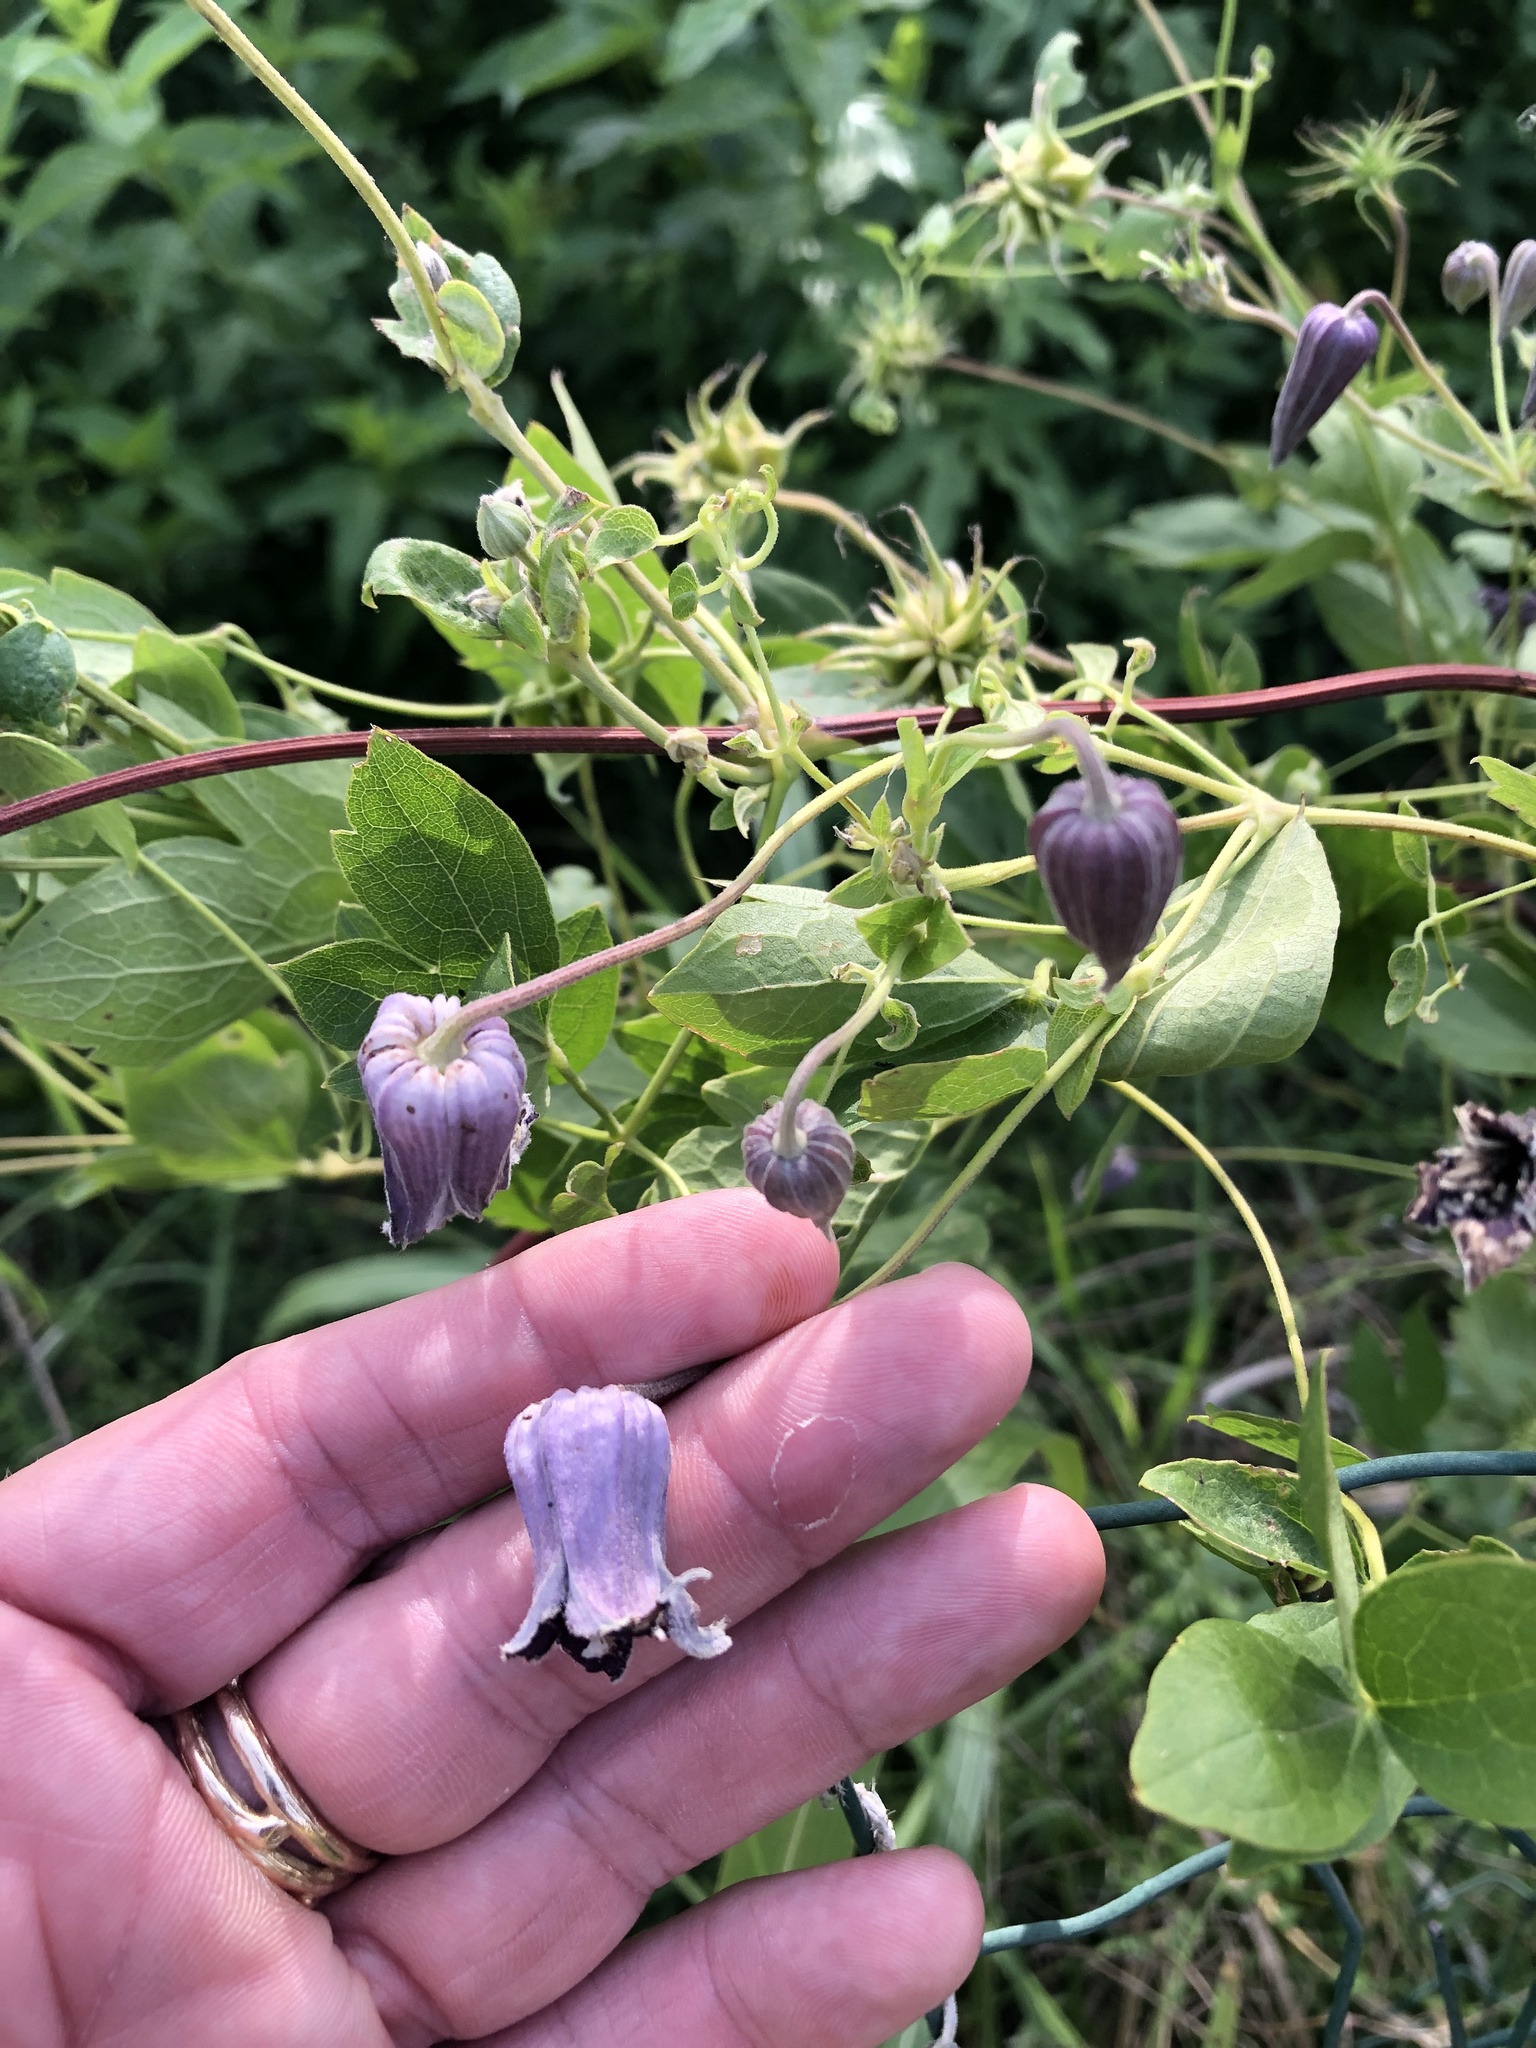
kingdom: Plantae
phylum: Tracheophyta
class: Magnoliopsida
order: Ranunculales
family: Ranunculaceae
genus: Clematis
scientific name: Clematis pitcheri
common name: Bellflower clematis
